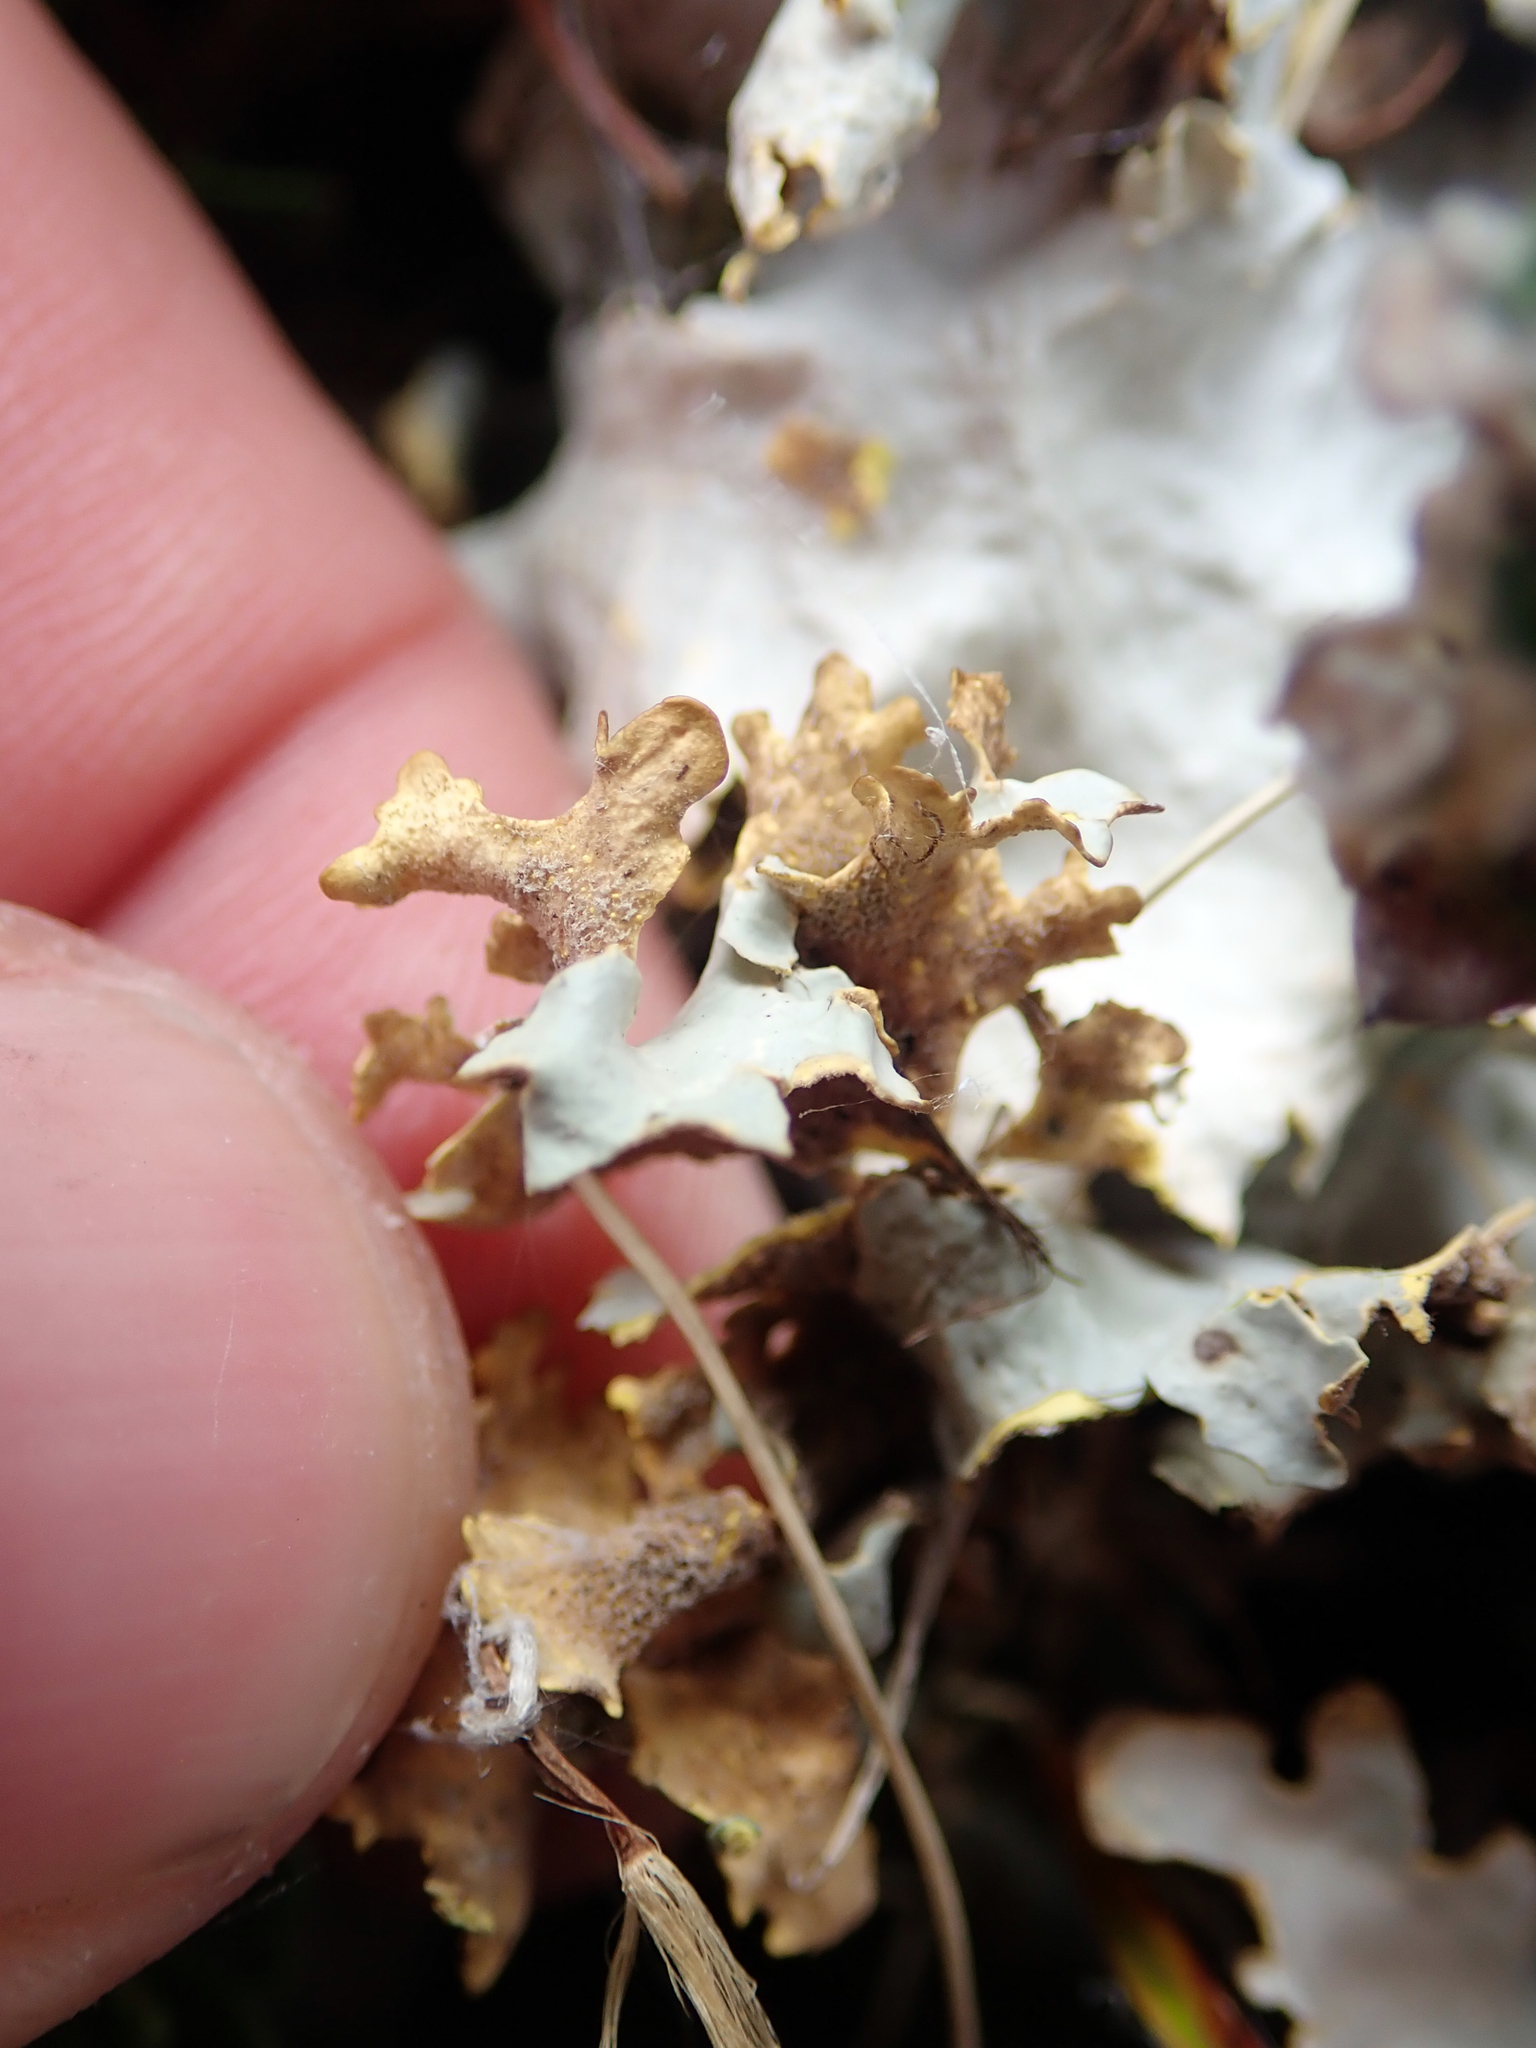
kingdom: Fungi
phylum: Ascomycota
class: Lecanoromycetes
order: Peltigerales
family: Lobariaceae
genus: Podostictina
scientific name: Podostictina degelii
